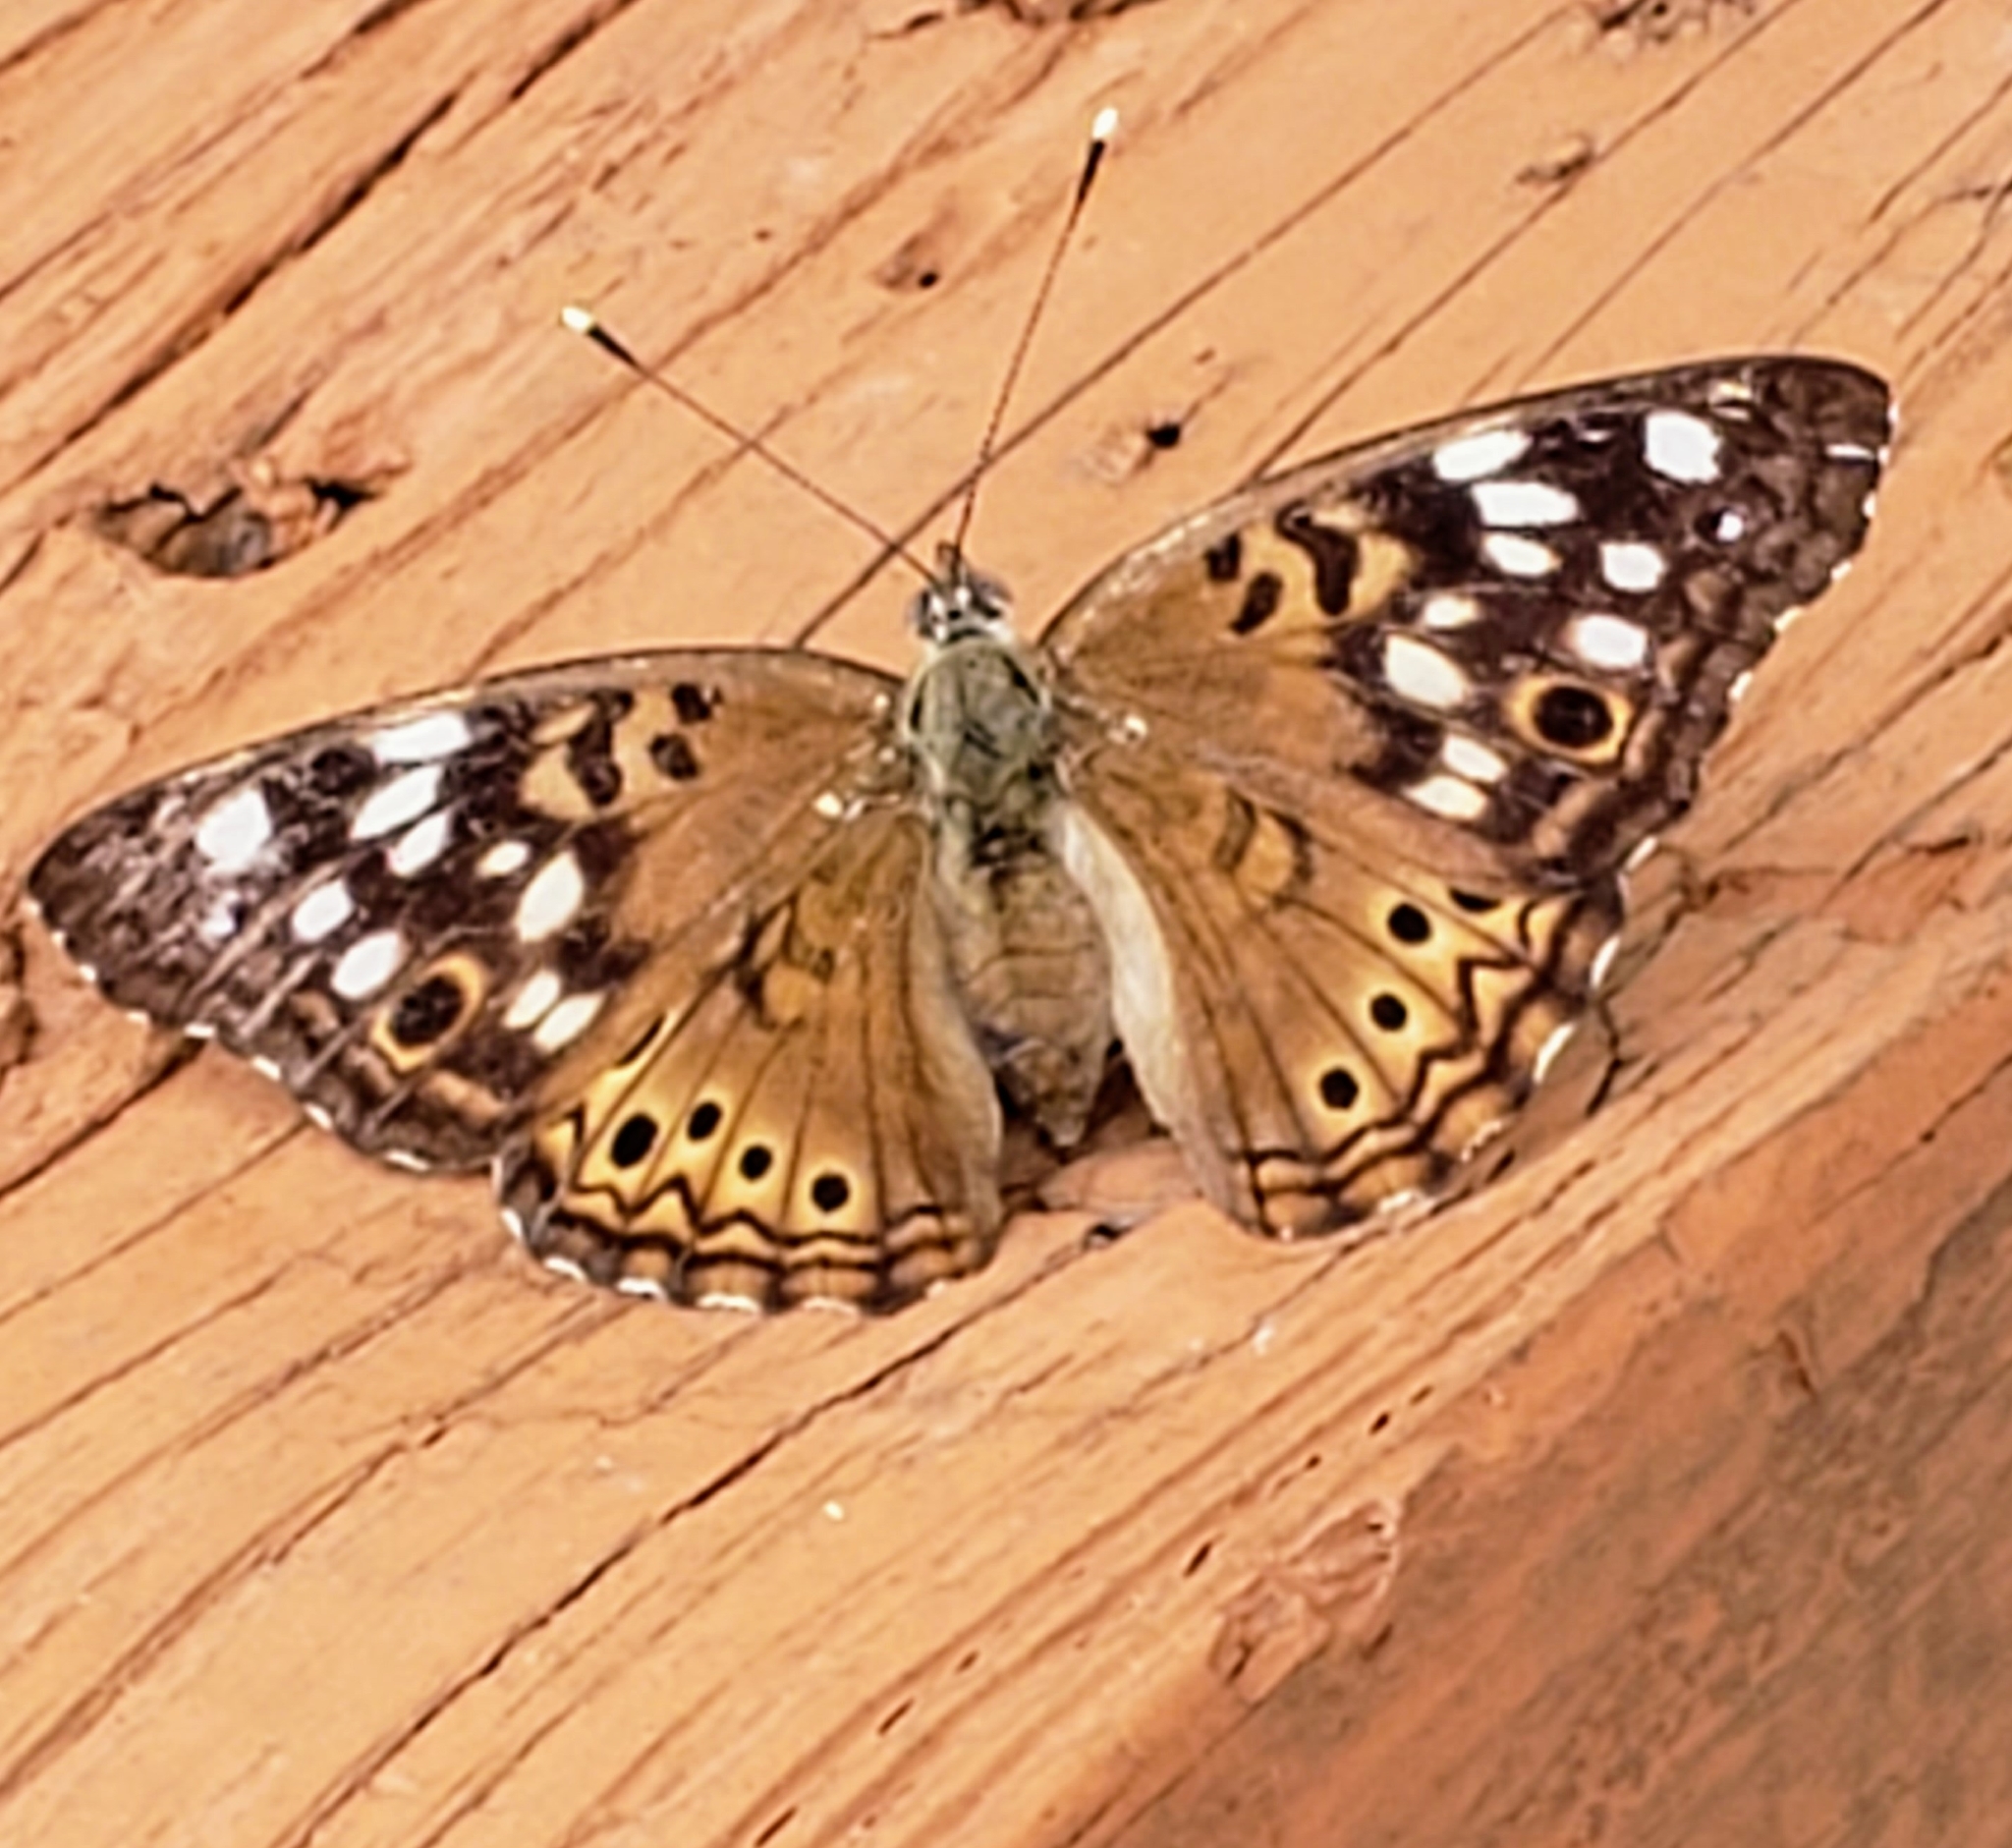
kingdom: Animalia
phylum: Arthropoda
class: Insecta
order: Lepidoptera
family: Nymphalidae
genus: Asterocampa
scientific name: Asterocampa celtis
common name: Hackberry emperor
